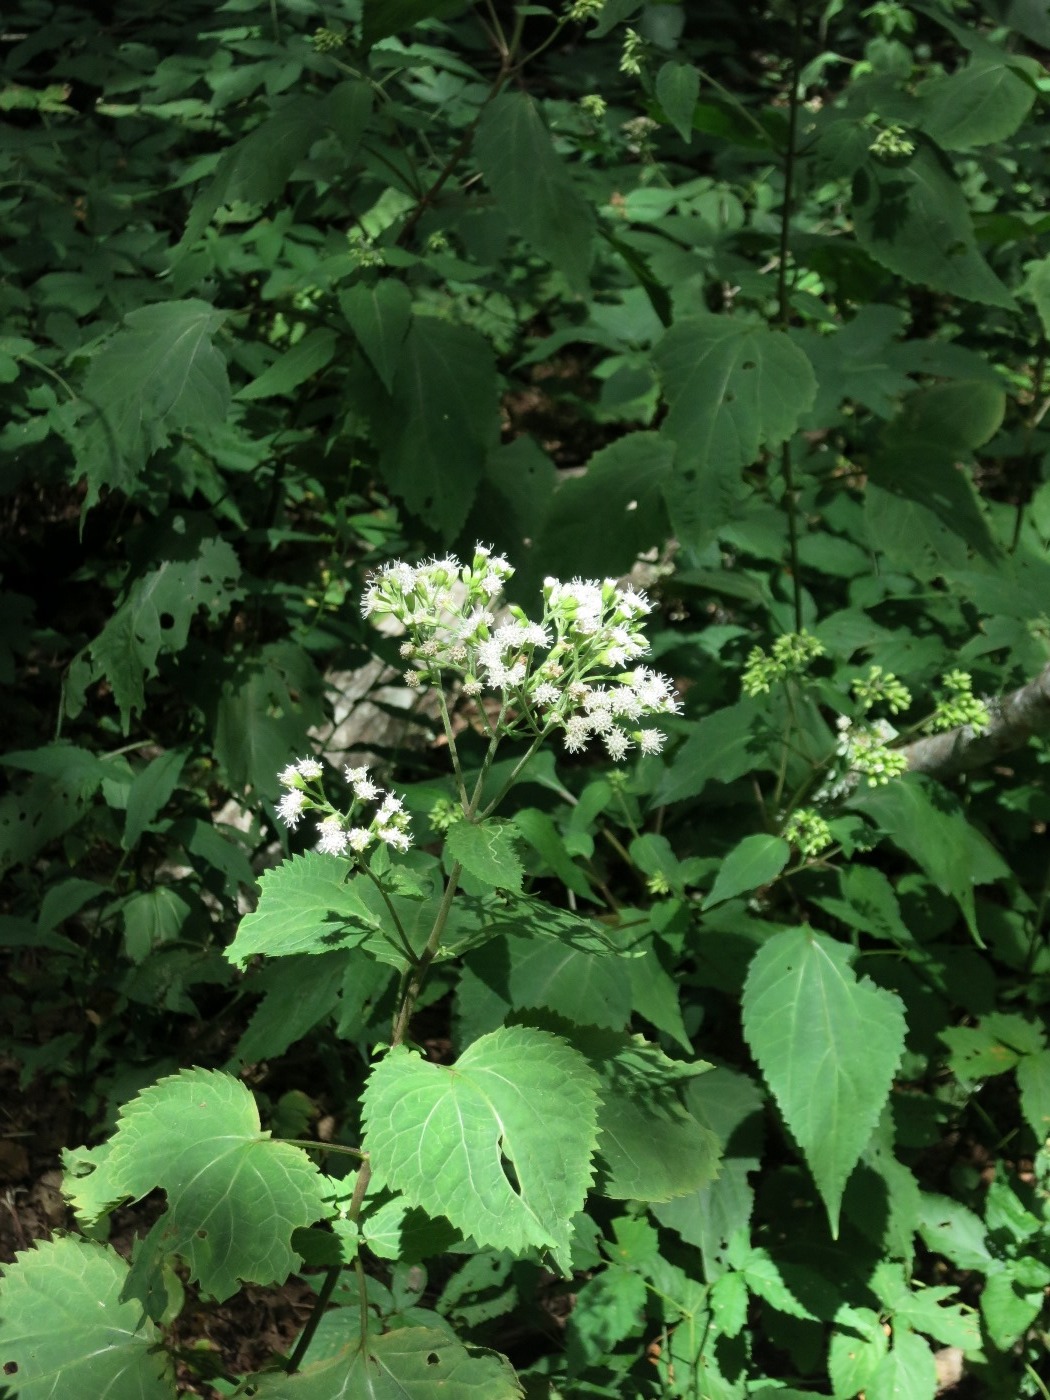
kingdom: Plantae
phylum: Tracheophyta
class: Magnoliopsida
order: Asterales
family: Asteraceae
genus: Ageratina
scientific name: Ageratina altissima
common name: White snakeroot
